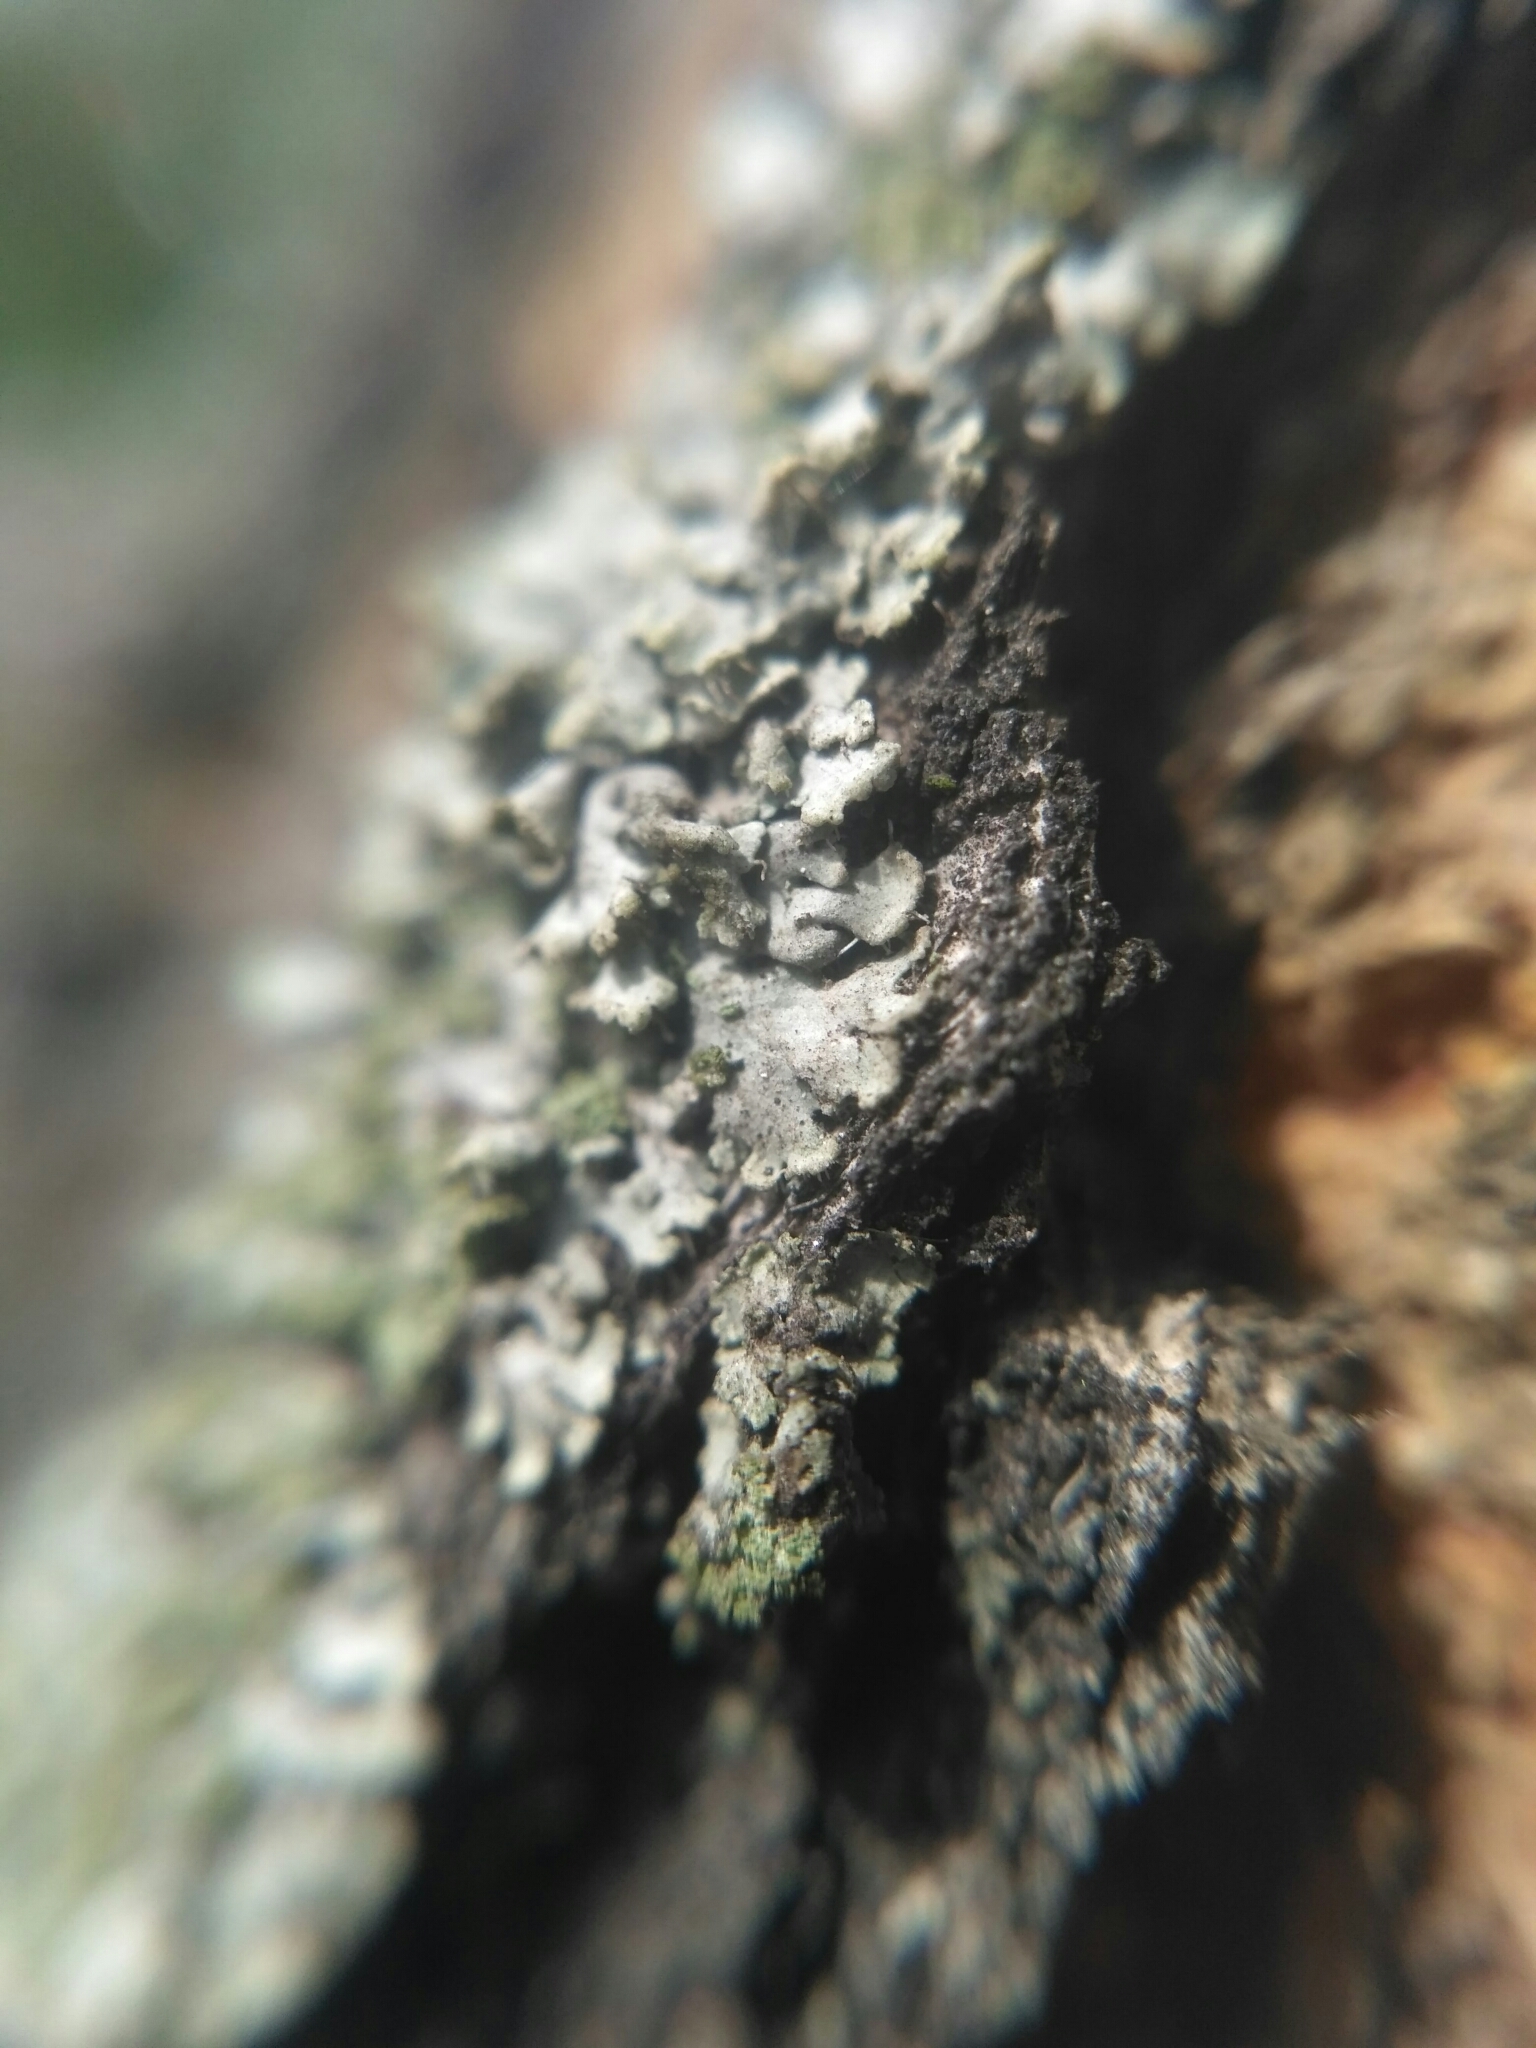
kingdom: Fungi
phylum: Ascomycota
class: Lecanoromycetes
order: Caliciales
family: Physciaceae
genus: Phaeophyscia
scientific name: Phaeophyscia orbicularis
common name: Mealy shadow lichen
